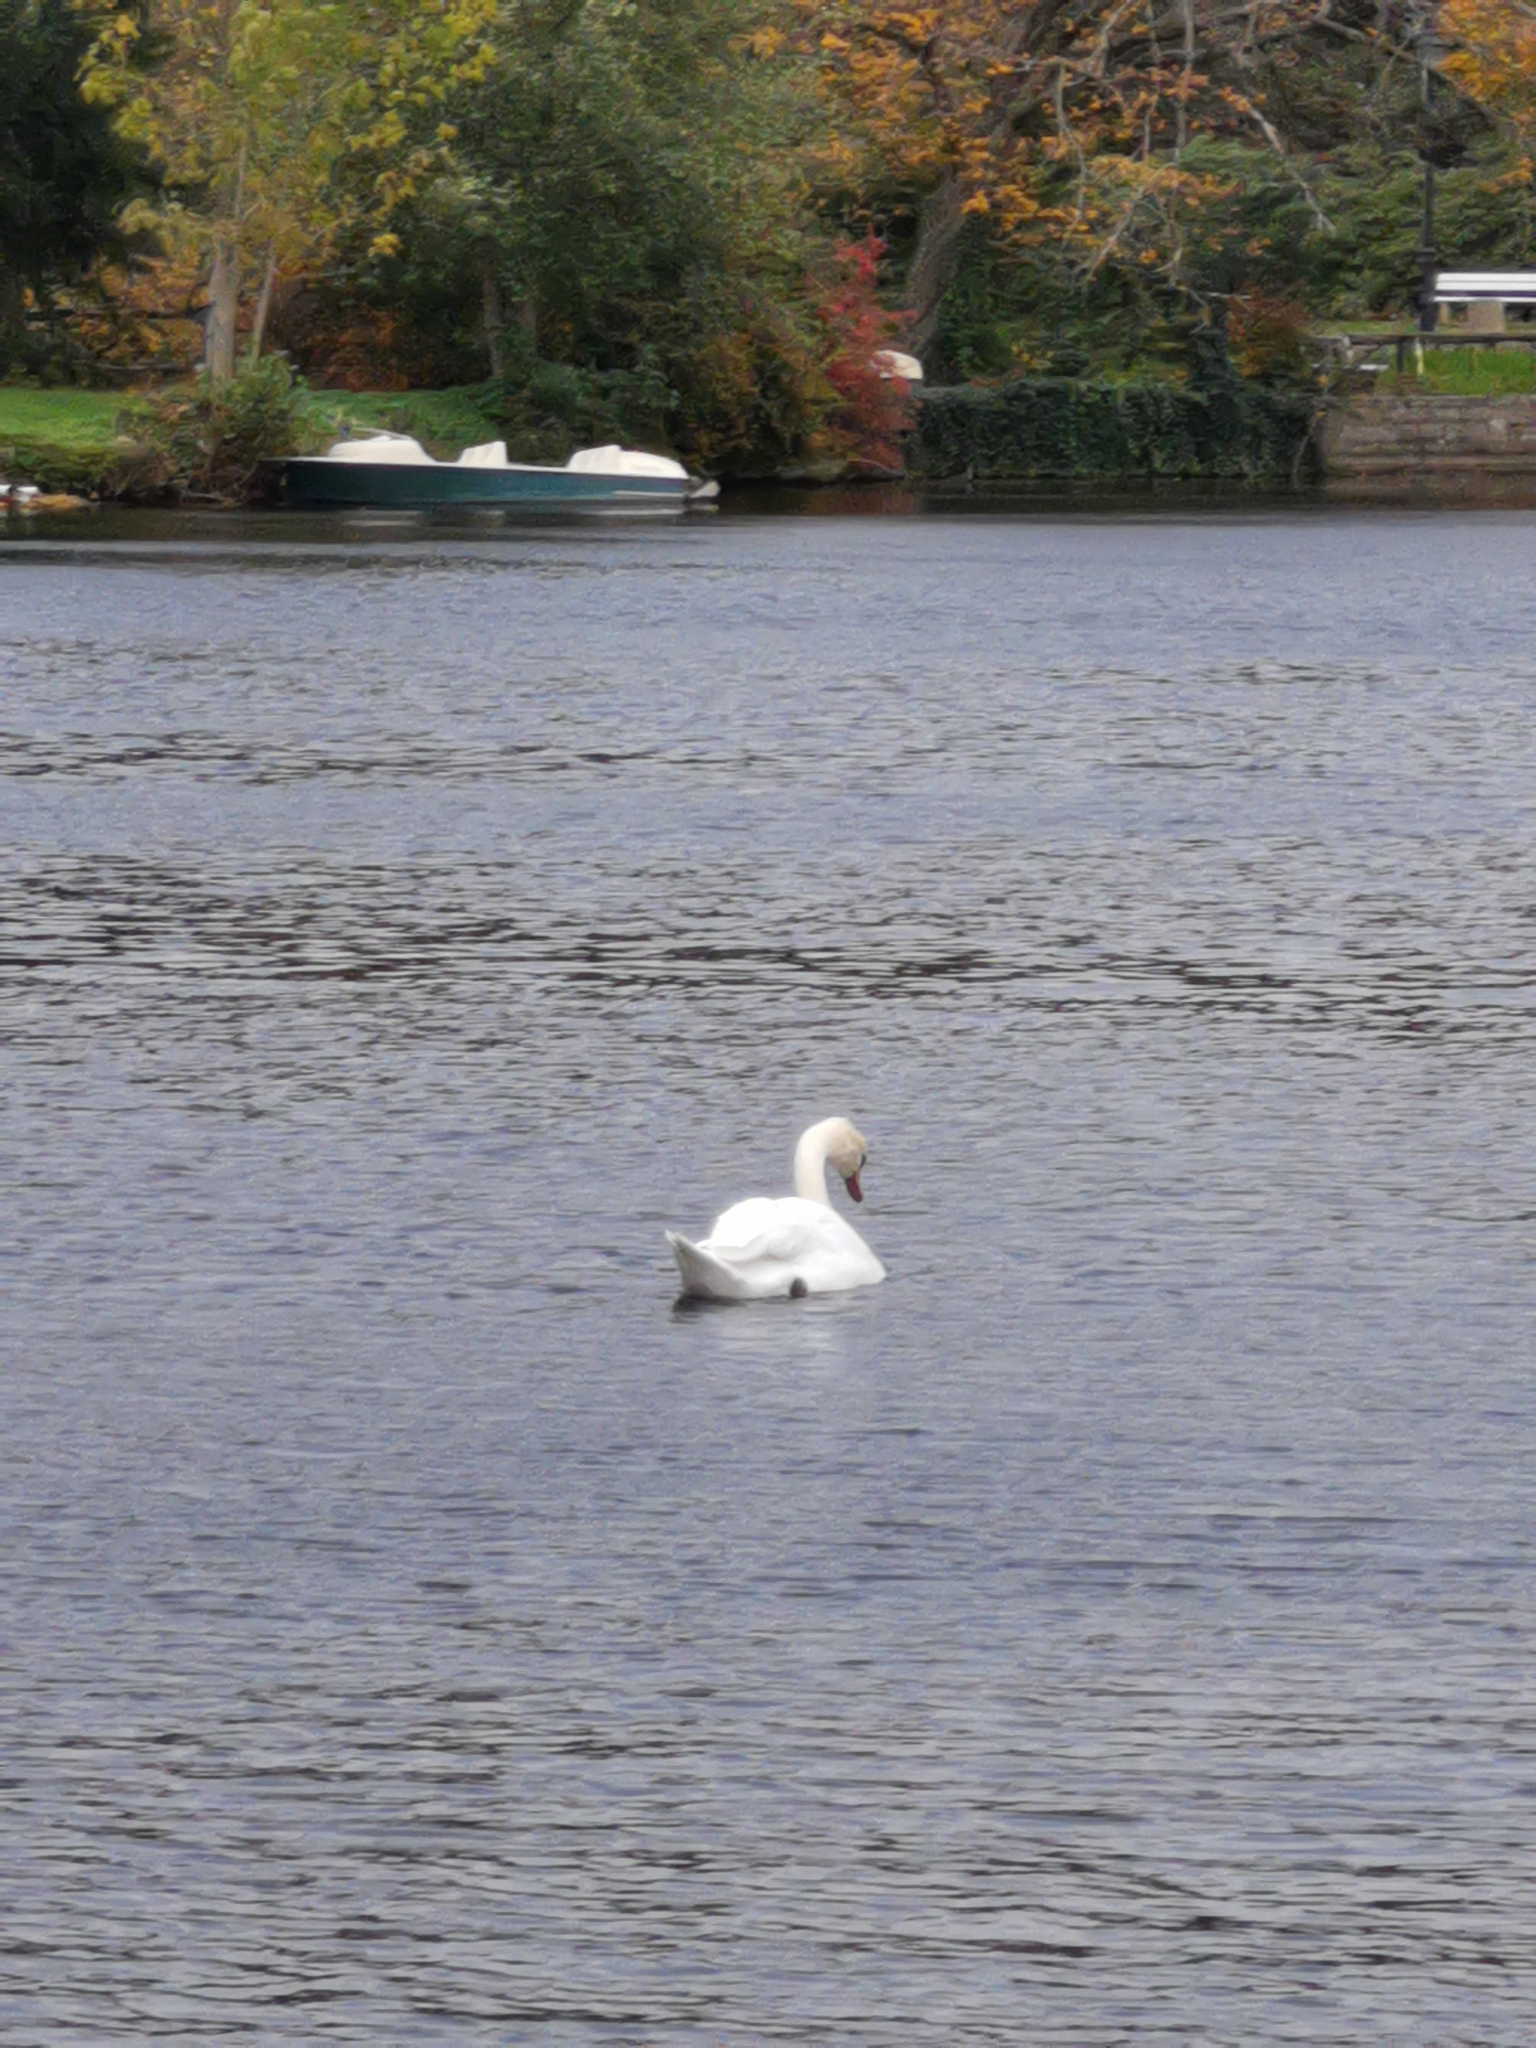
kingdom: Animalia
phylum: Chordata
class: Aves
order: Anseriformes
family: Anatidae
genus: Cygnus
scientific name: Cygnus olor
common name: Mute swan
